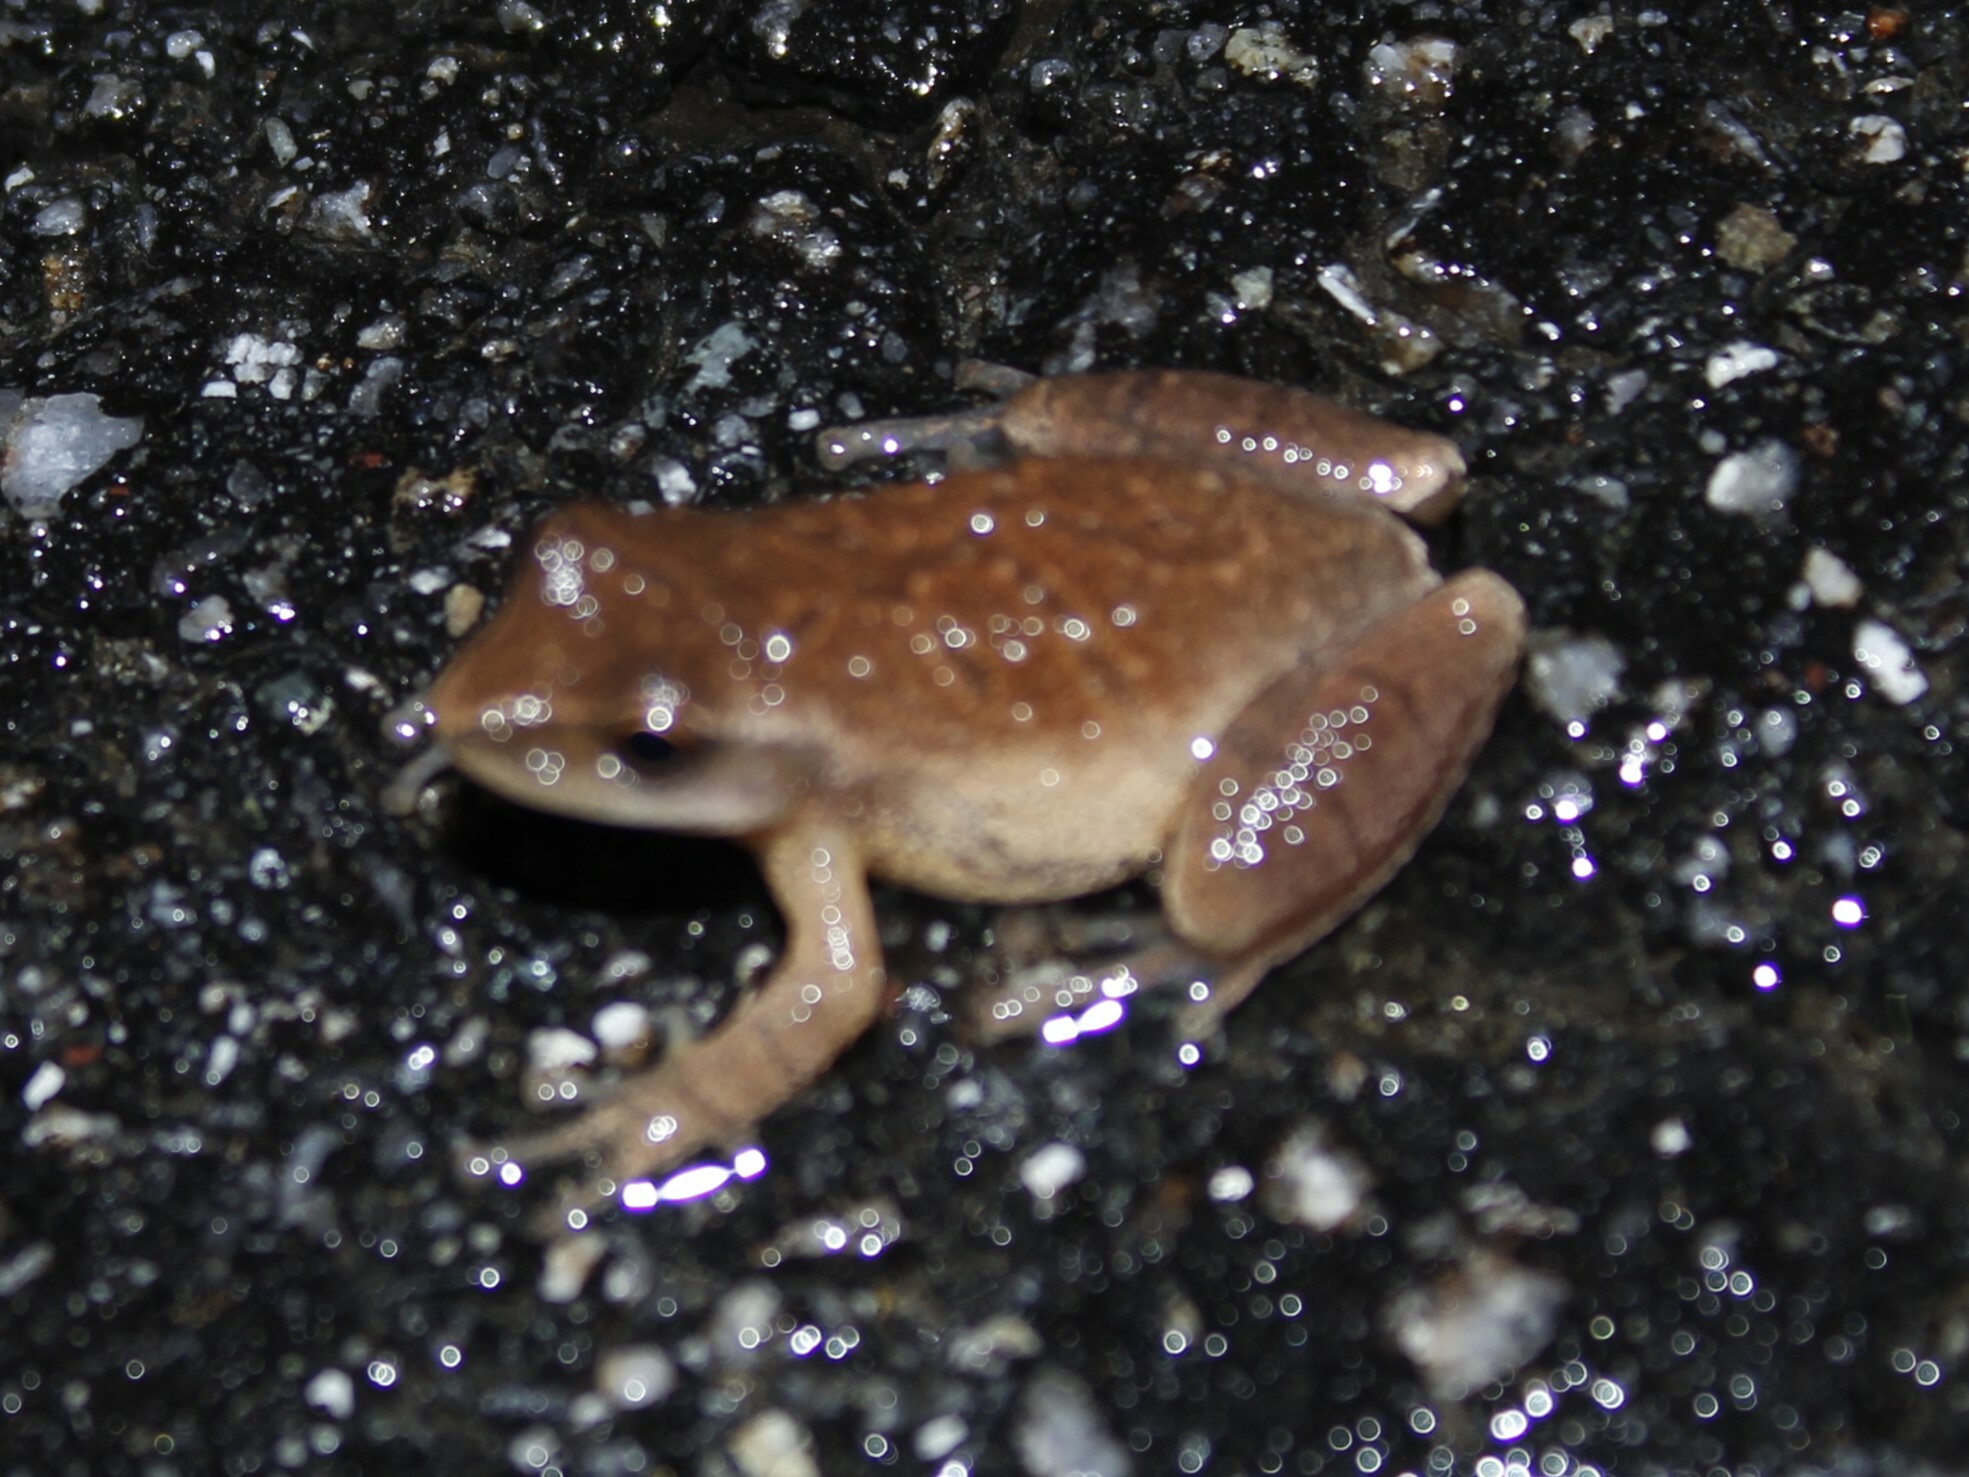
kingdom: Animalia
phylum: Chordata
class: Amphibia
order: Anura
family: Hylidae
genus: Pseudacris
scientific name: Pseudacris crucifer
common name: Spring peeper
